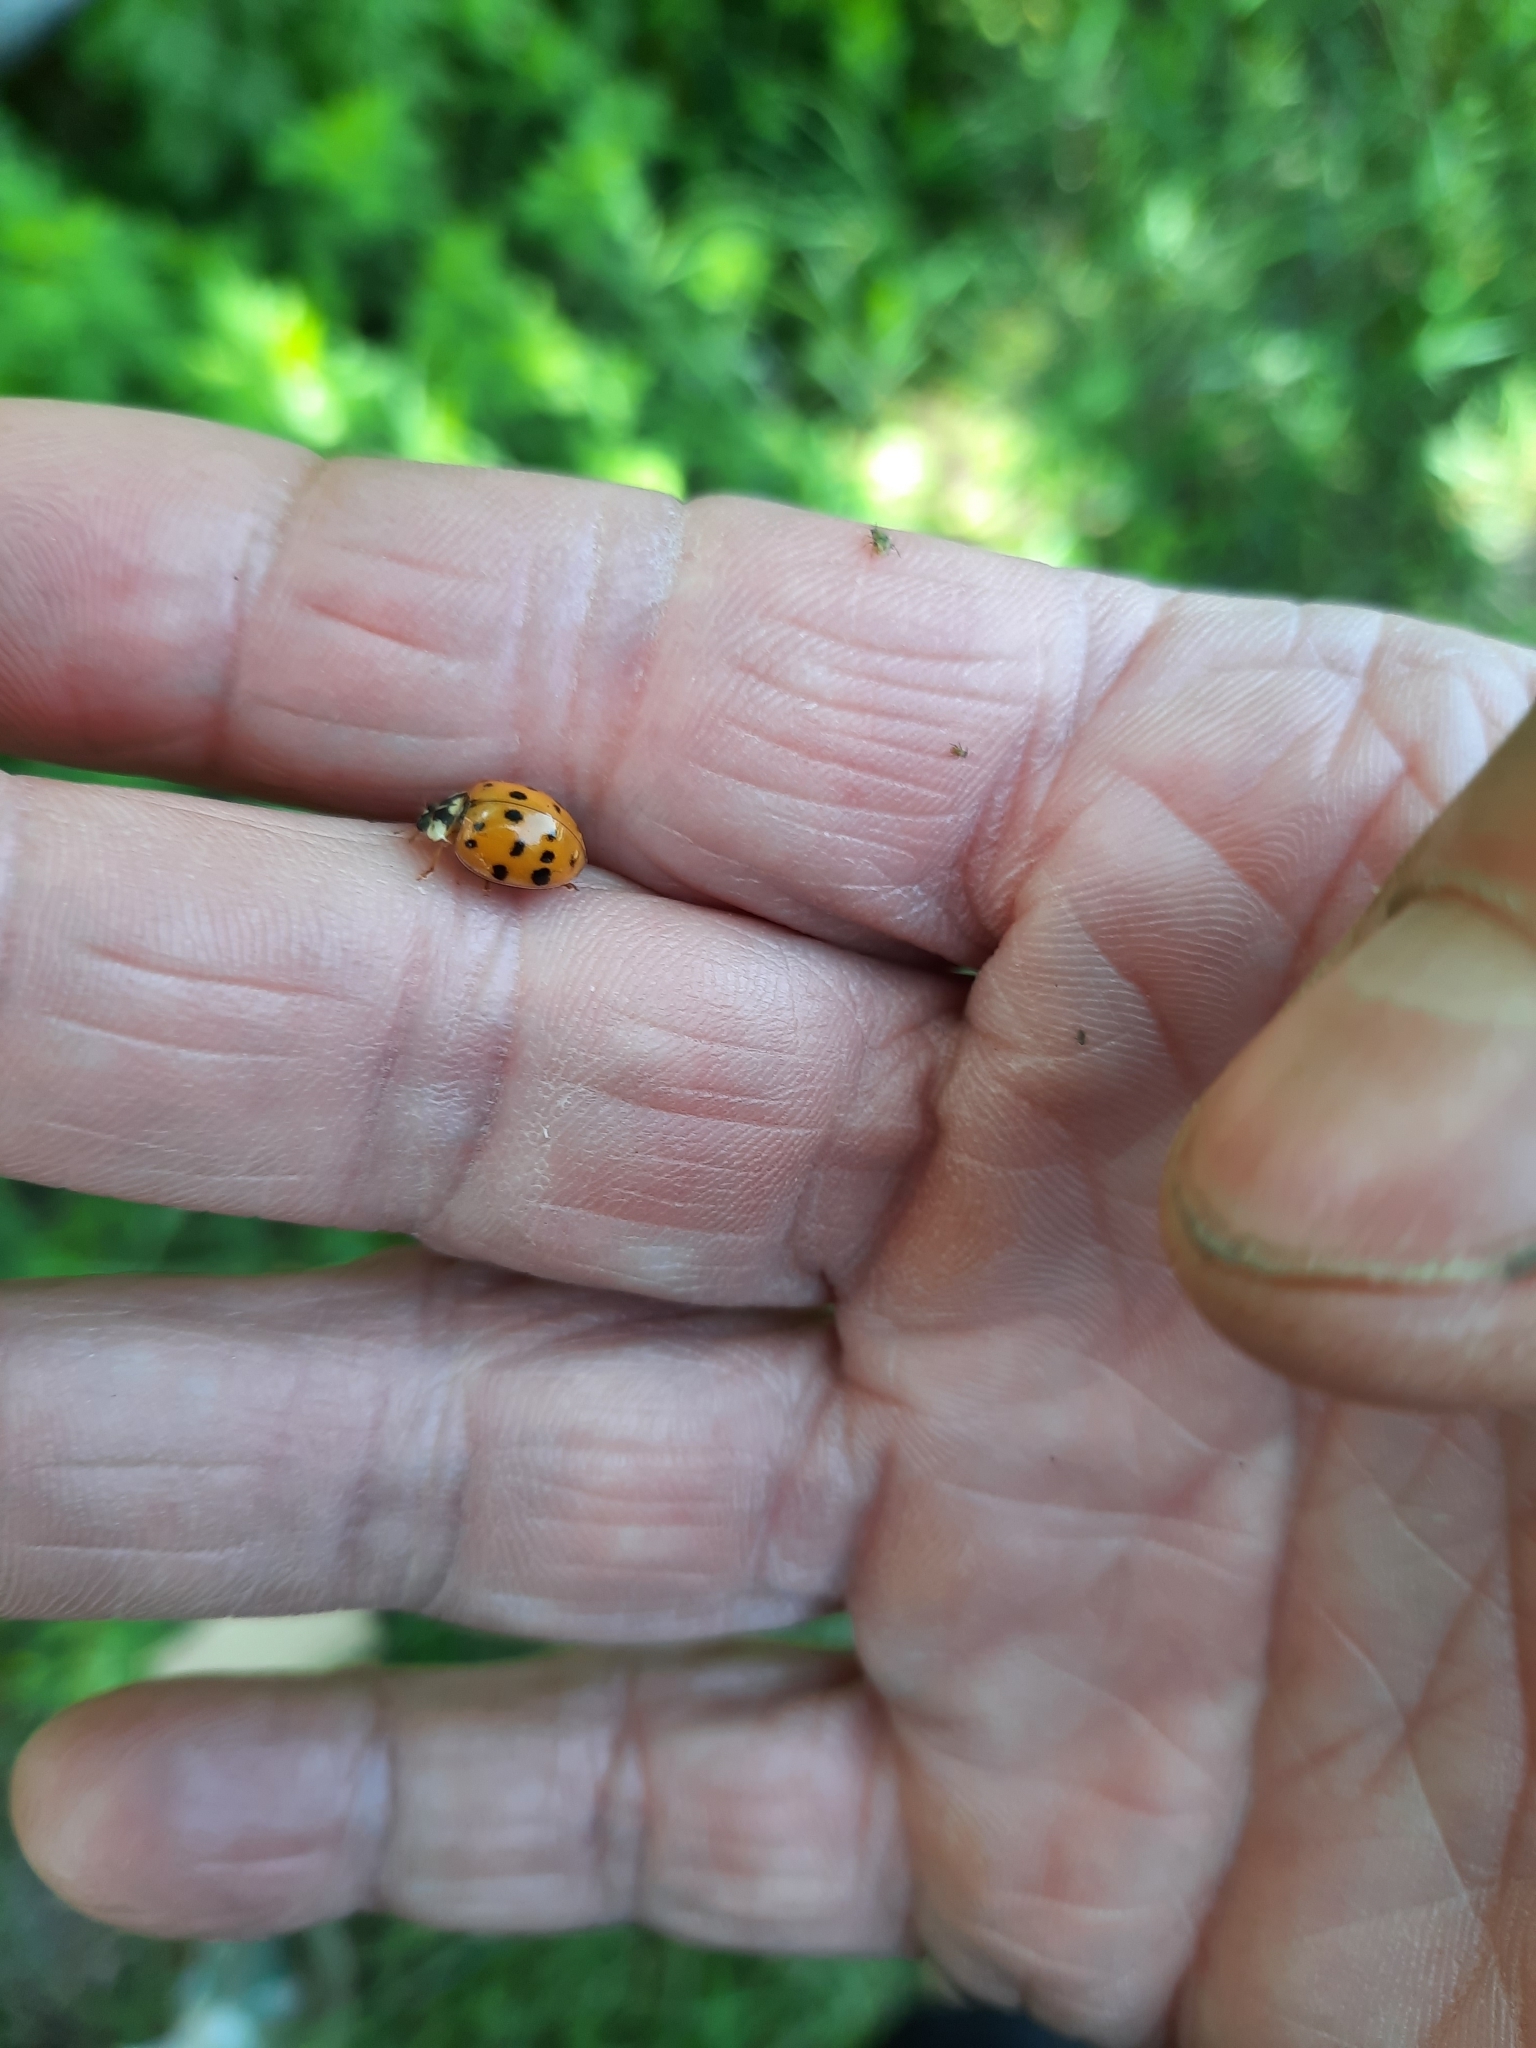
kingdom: Animalia
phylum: Arthropoda
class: Insecta
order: Coleoptera
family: Coccinellidae
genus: Harmonia
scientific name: Harmonia axyridis
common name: Harlequin ladybird
